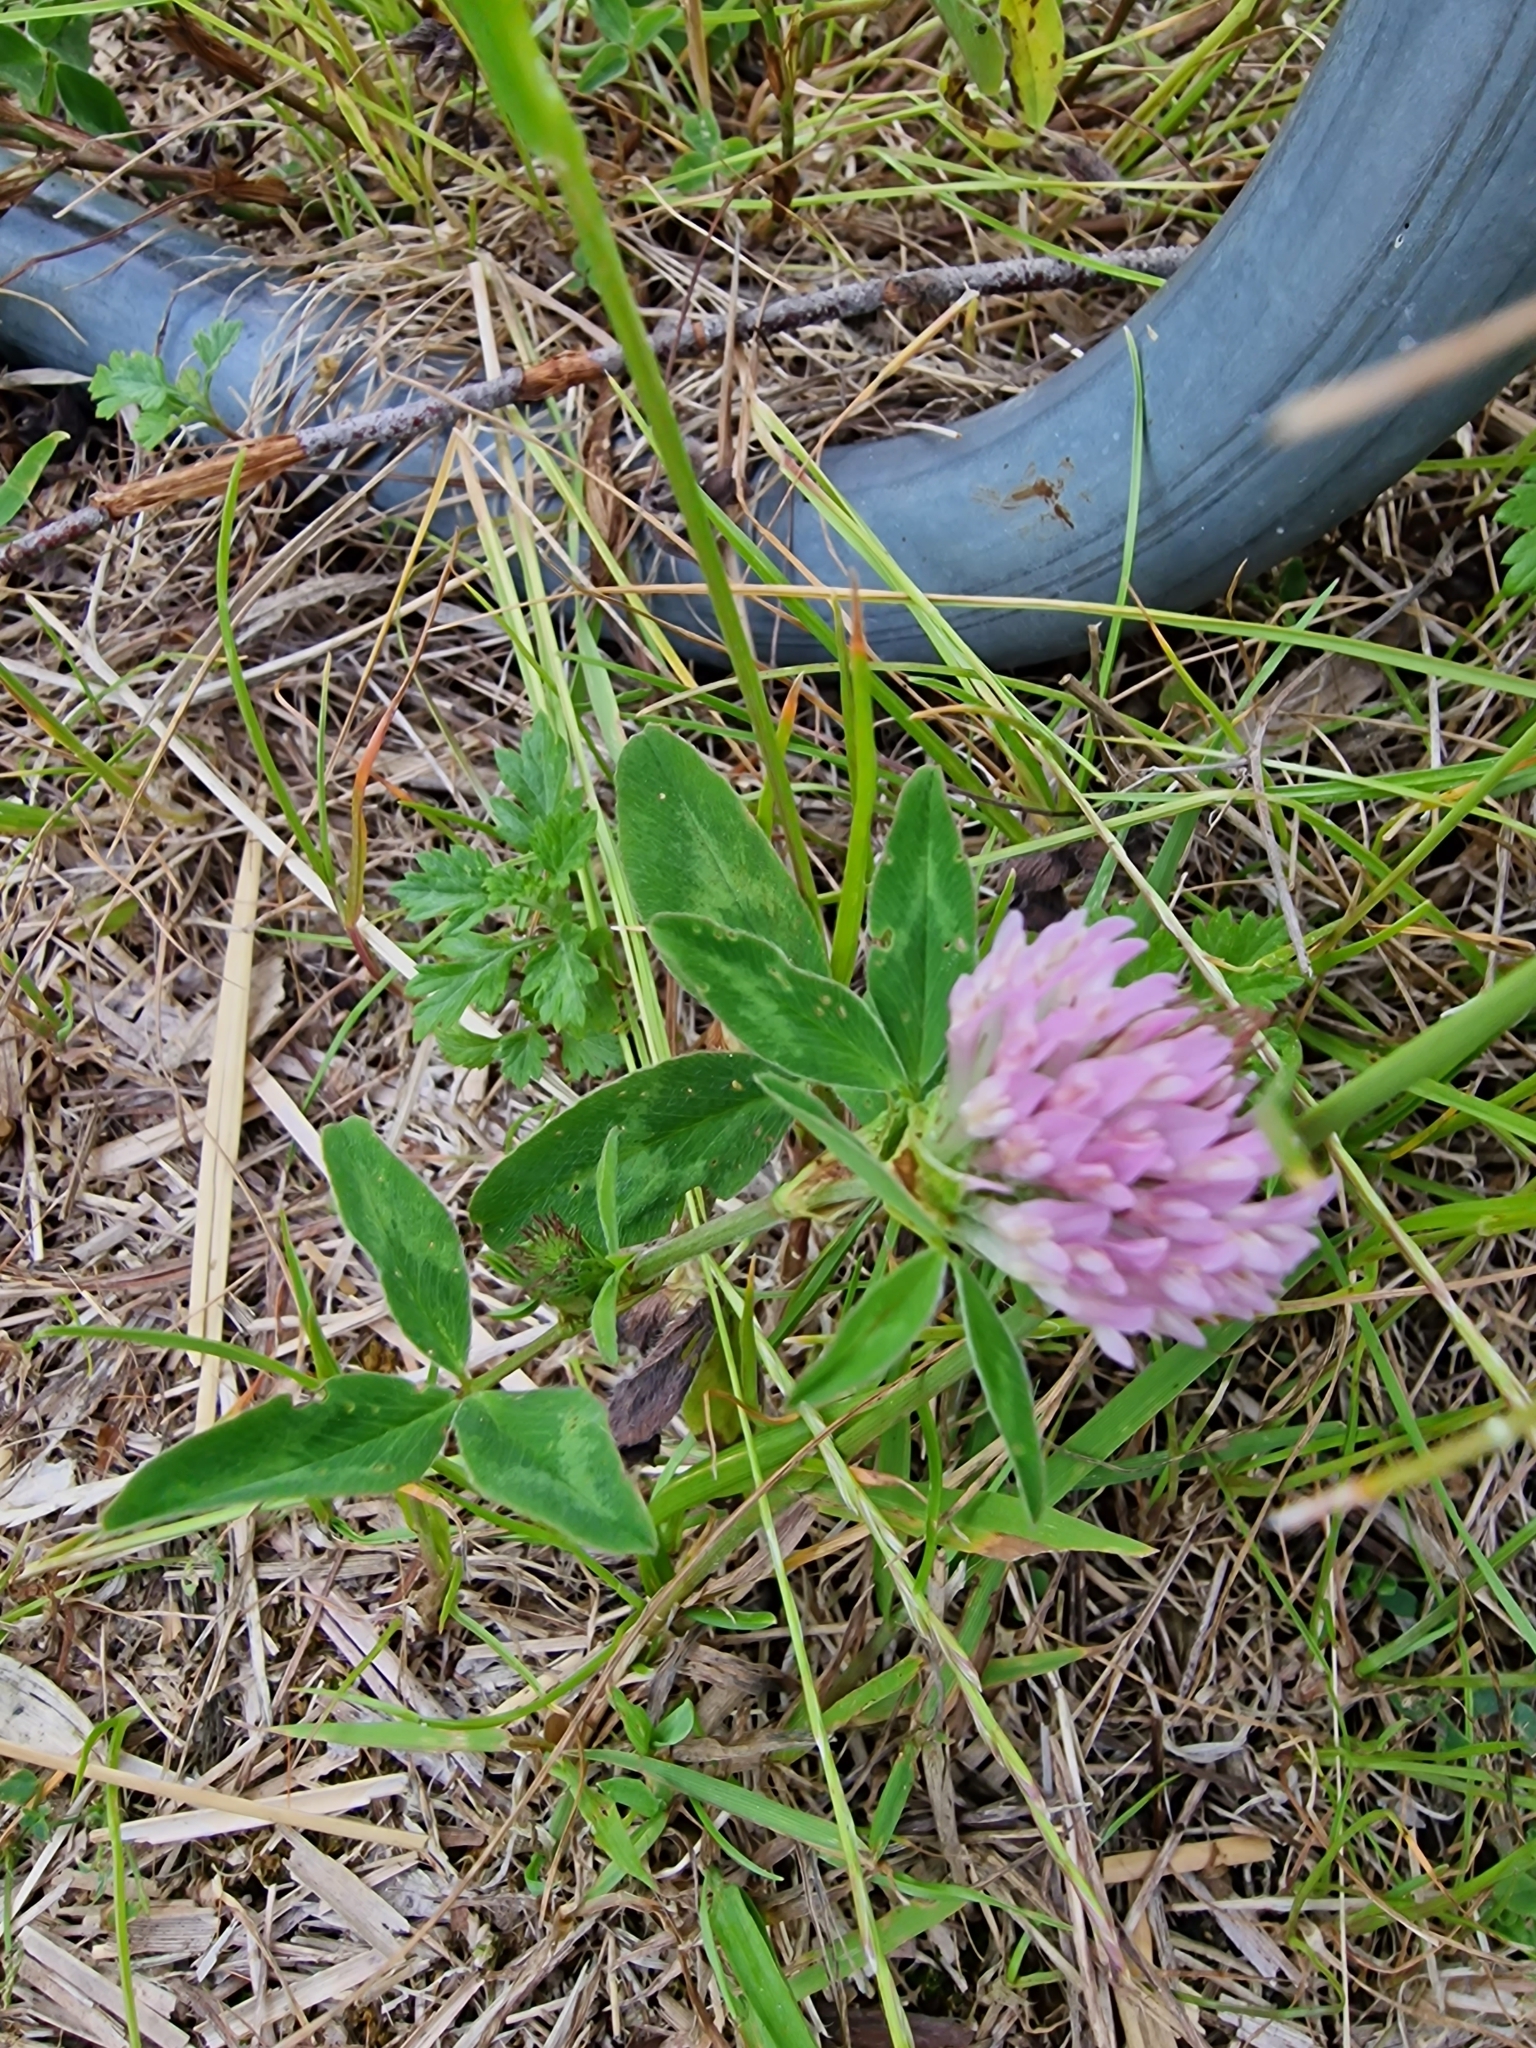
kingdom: Plantae
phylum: Tracheophyta
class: Magnoliopsida
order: Fabales
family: Fabaceae
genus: Trifolium
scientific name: Trifolium pratense
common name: Red clover
